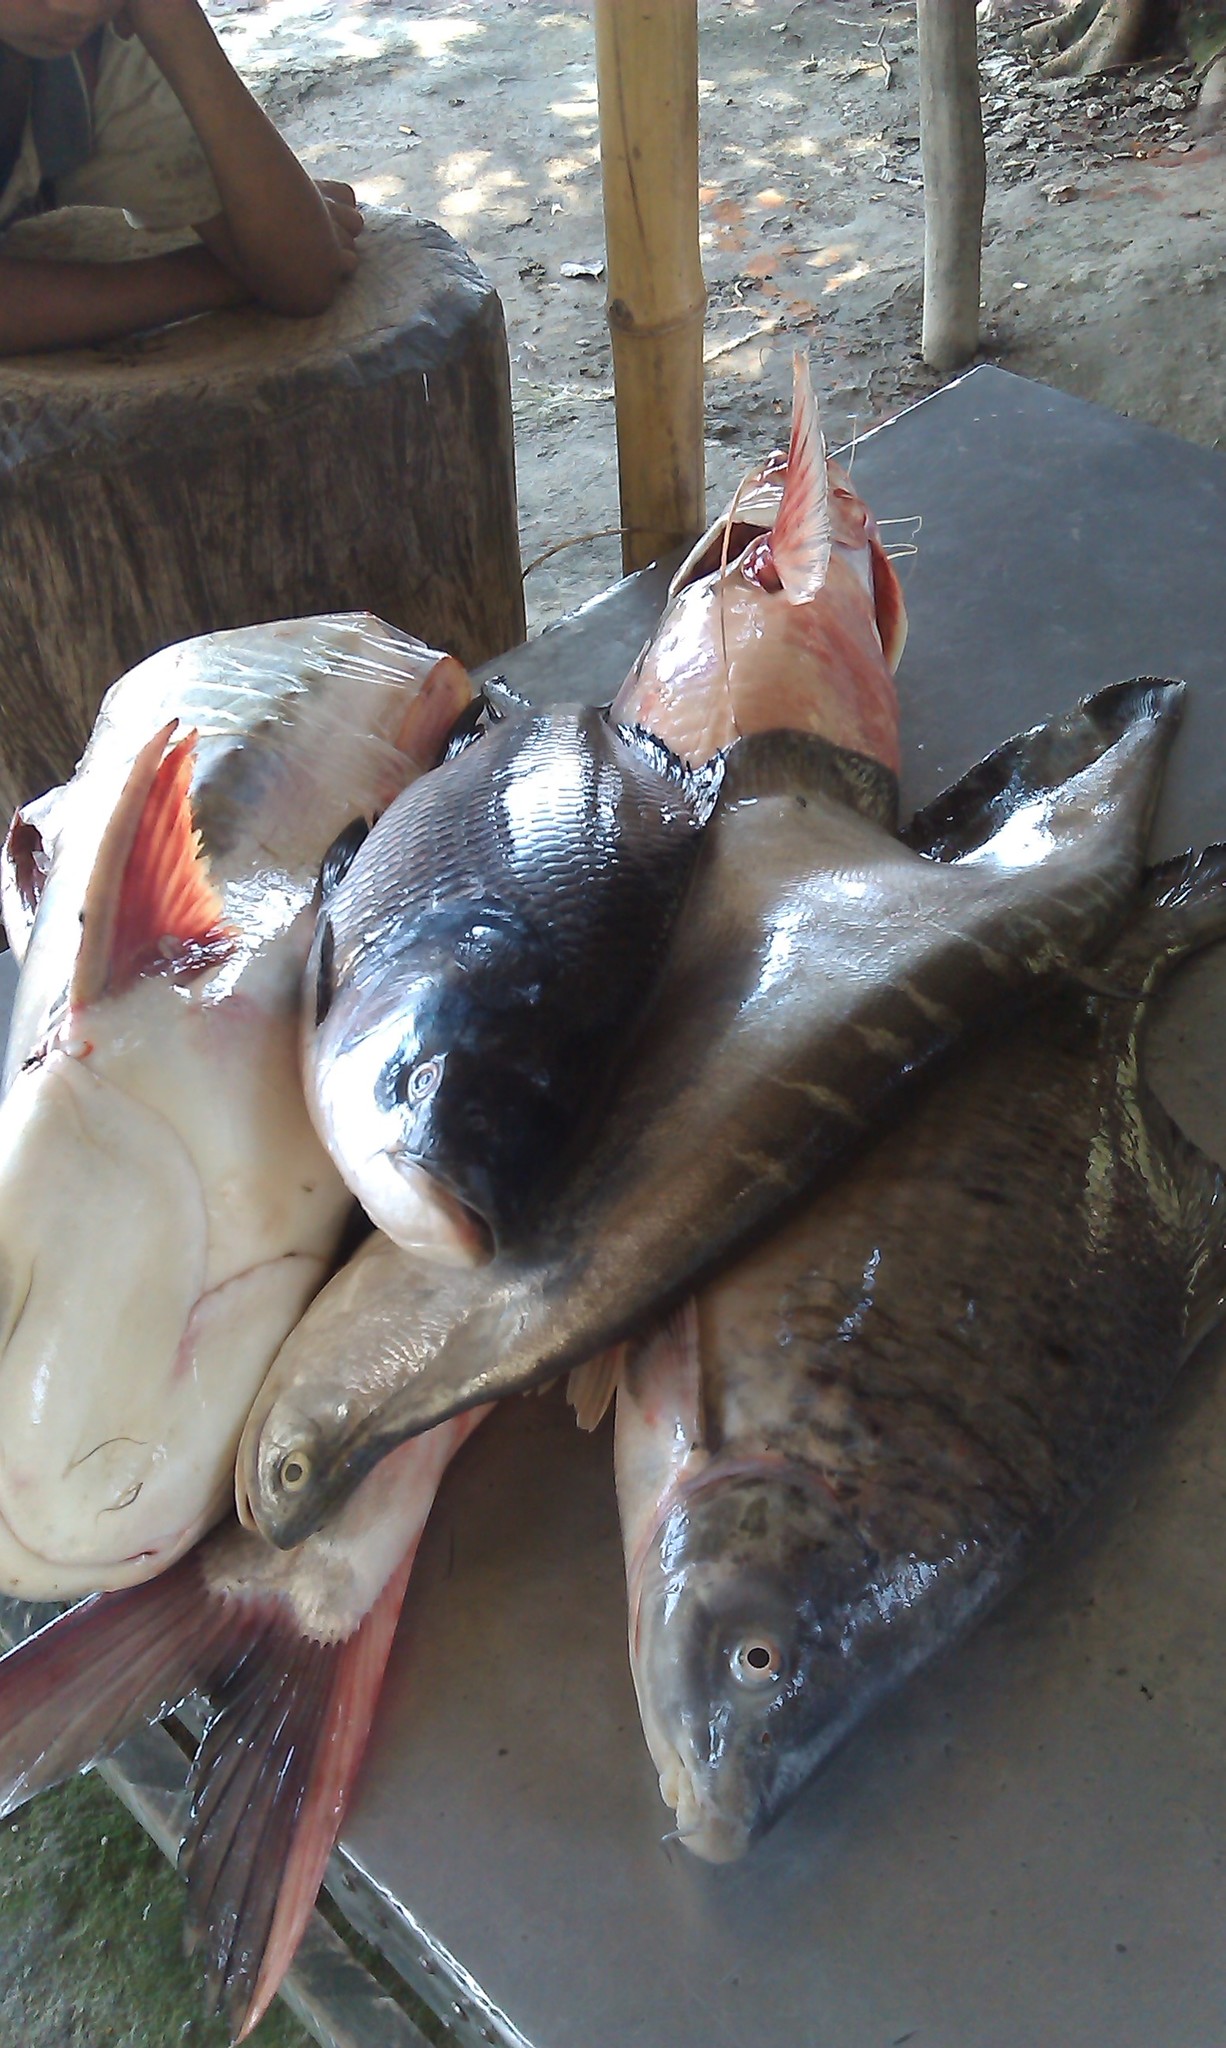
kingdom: Animalia
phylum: Chordata
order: Cypriniformes
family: Cyprinidae
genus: Gibelion
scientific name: Gibelion catla
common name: Catla
